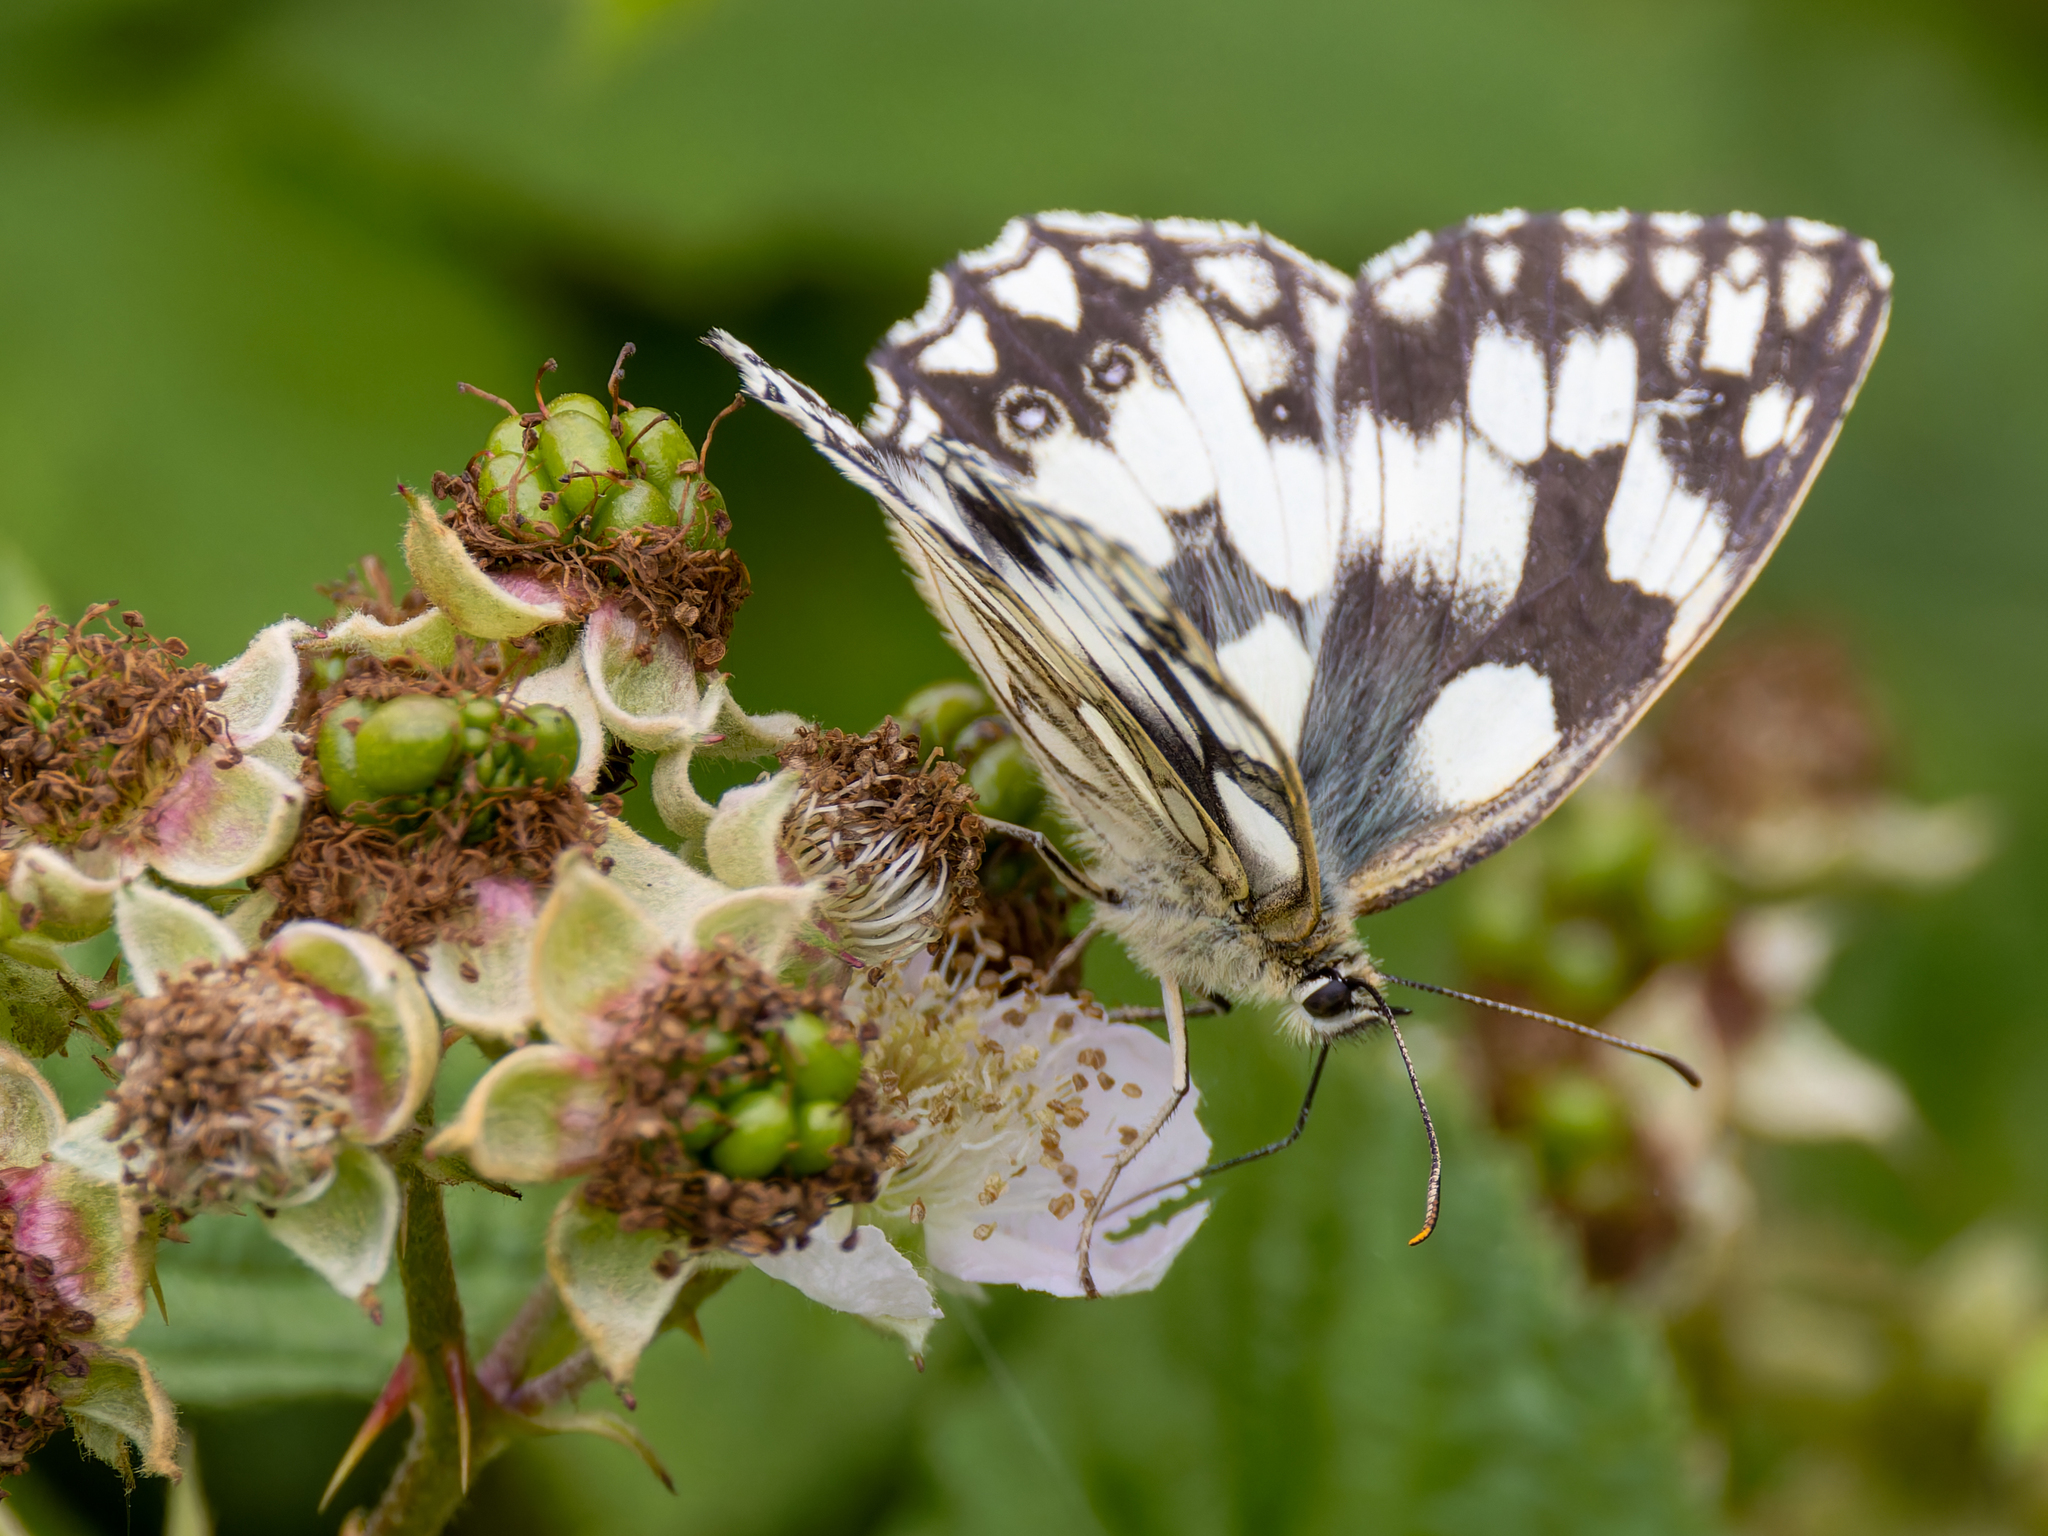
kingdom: Animalia
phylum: Arthropoda
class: Insecta
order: Lepidoptera
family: Nymphalidae
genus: Melanargia
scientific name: Melanargia galathea
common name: Marbled white
